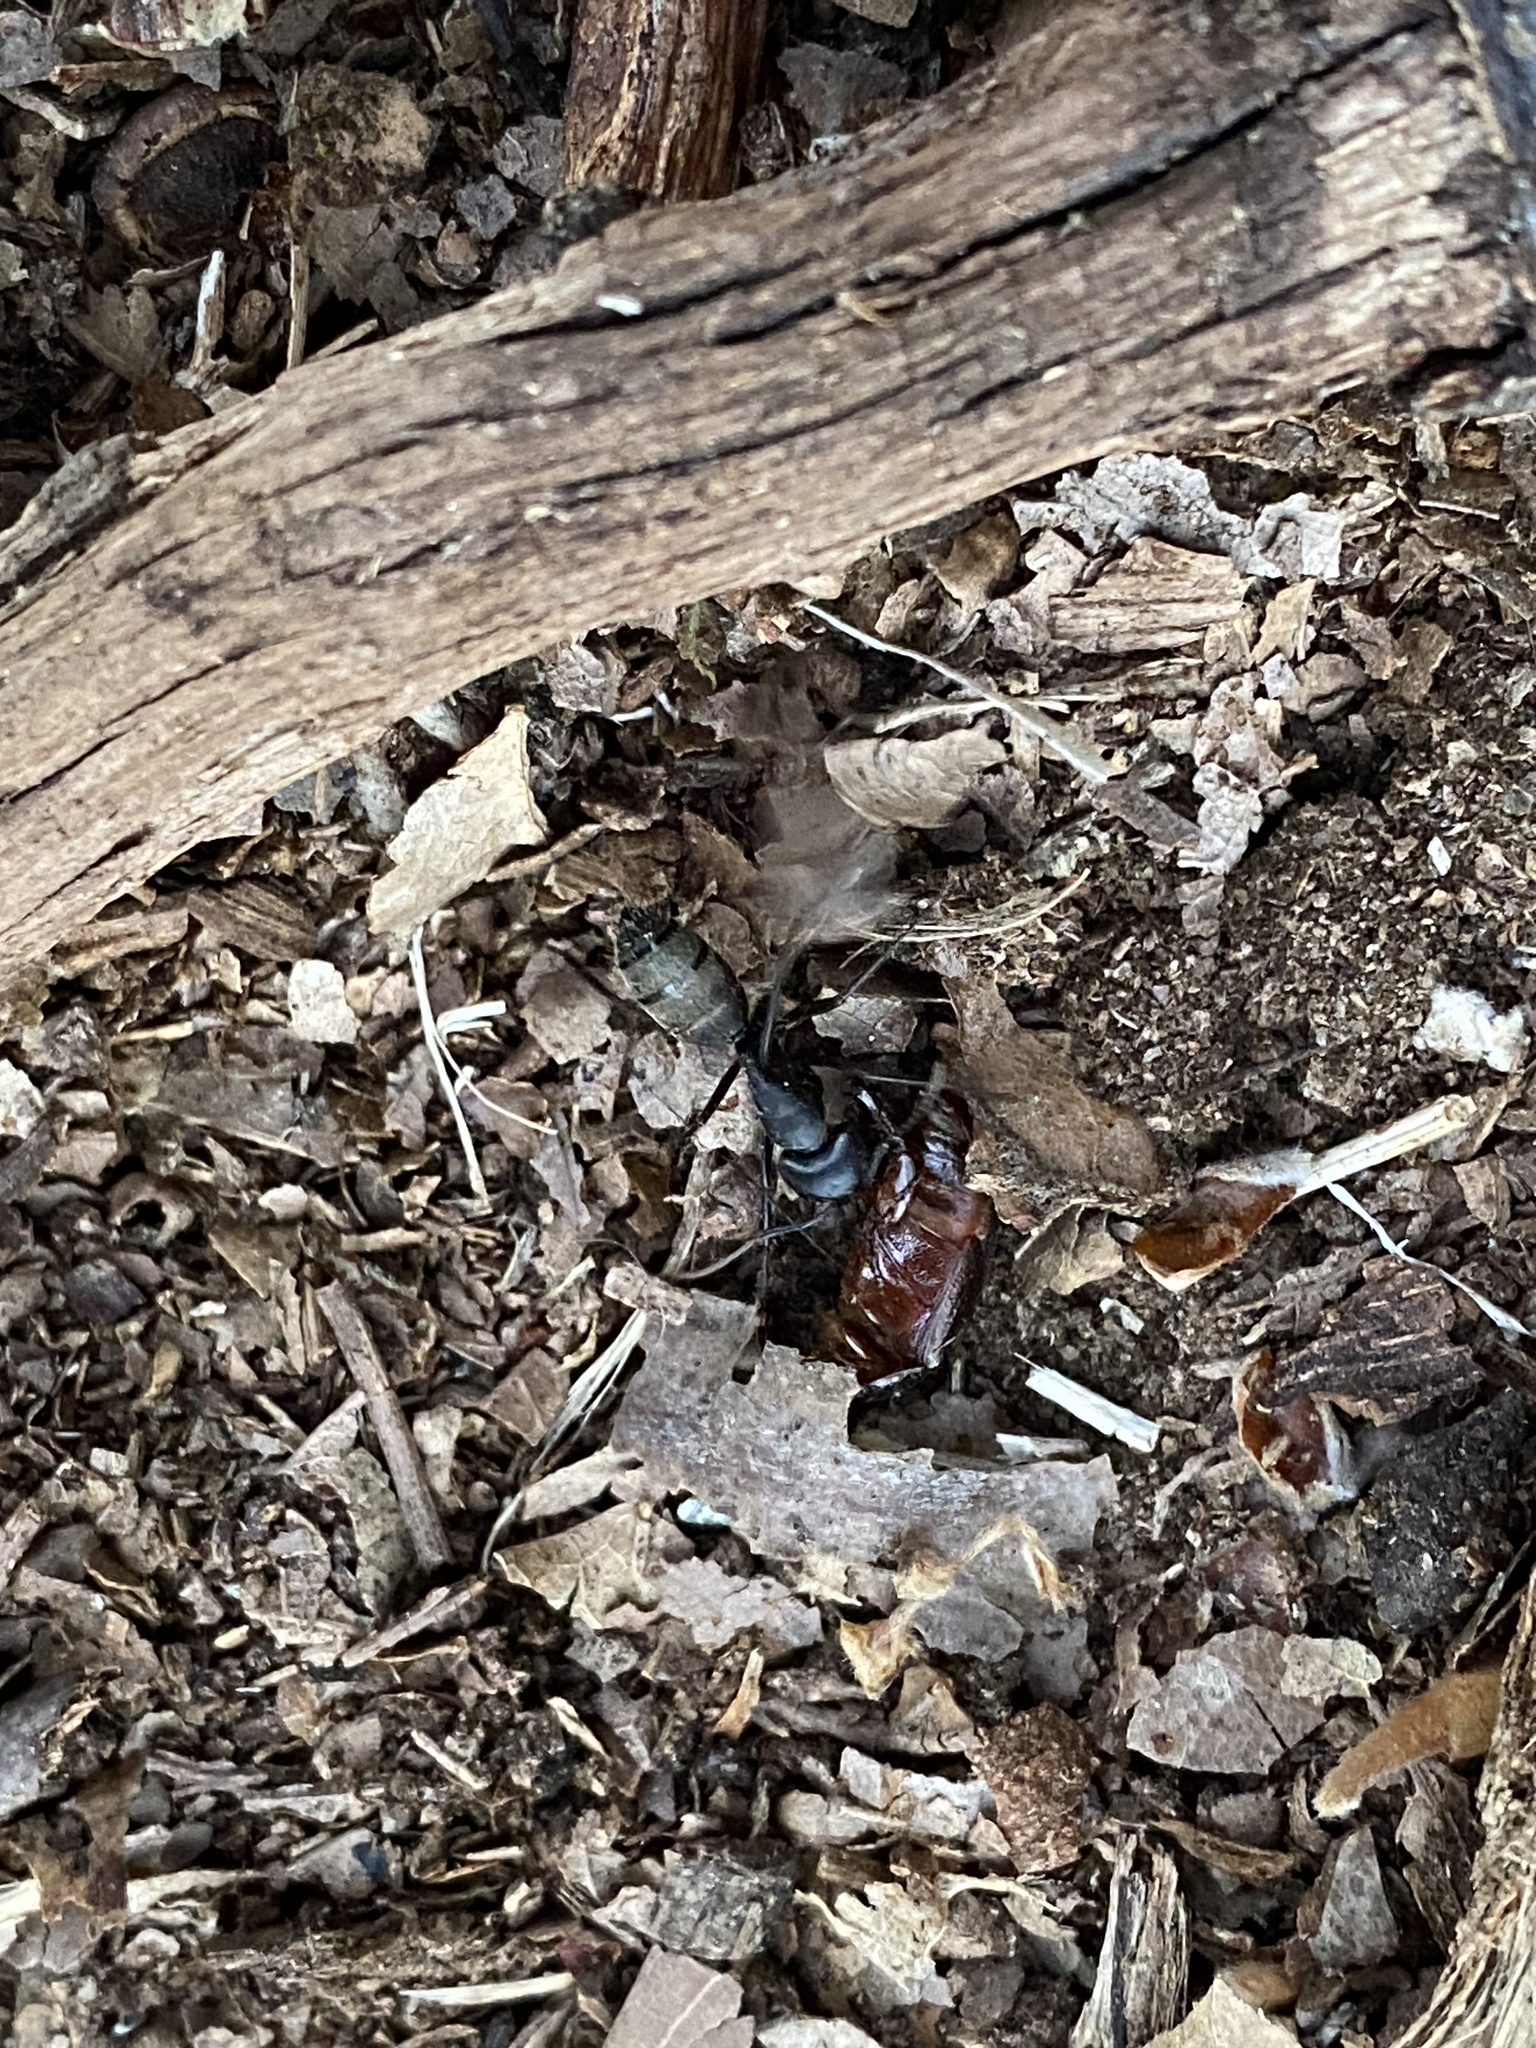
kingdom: Animalia
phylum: Arthropoda
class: Insecta
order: Hymenoptera
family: Formicidae
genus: Camponotus
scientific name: Camponotus pennsylvanicus
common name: Black carpenter ant
